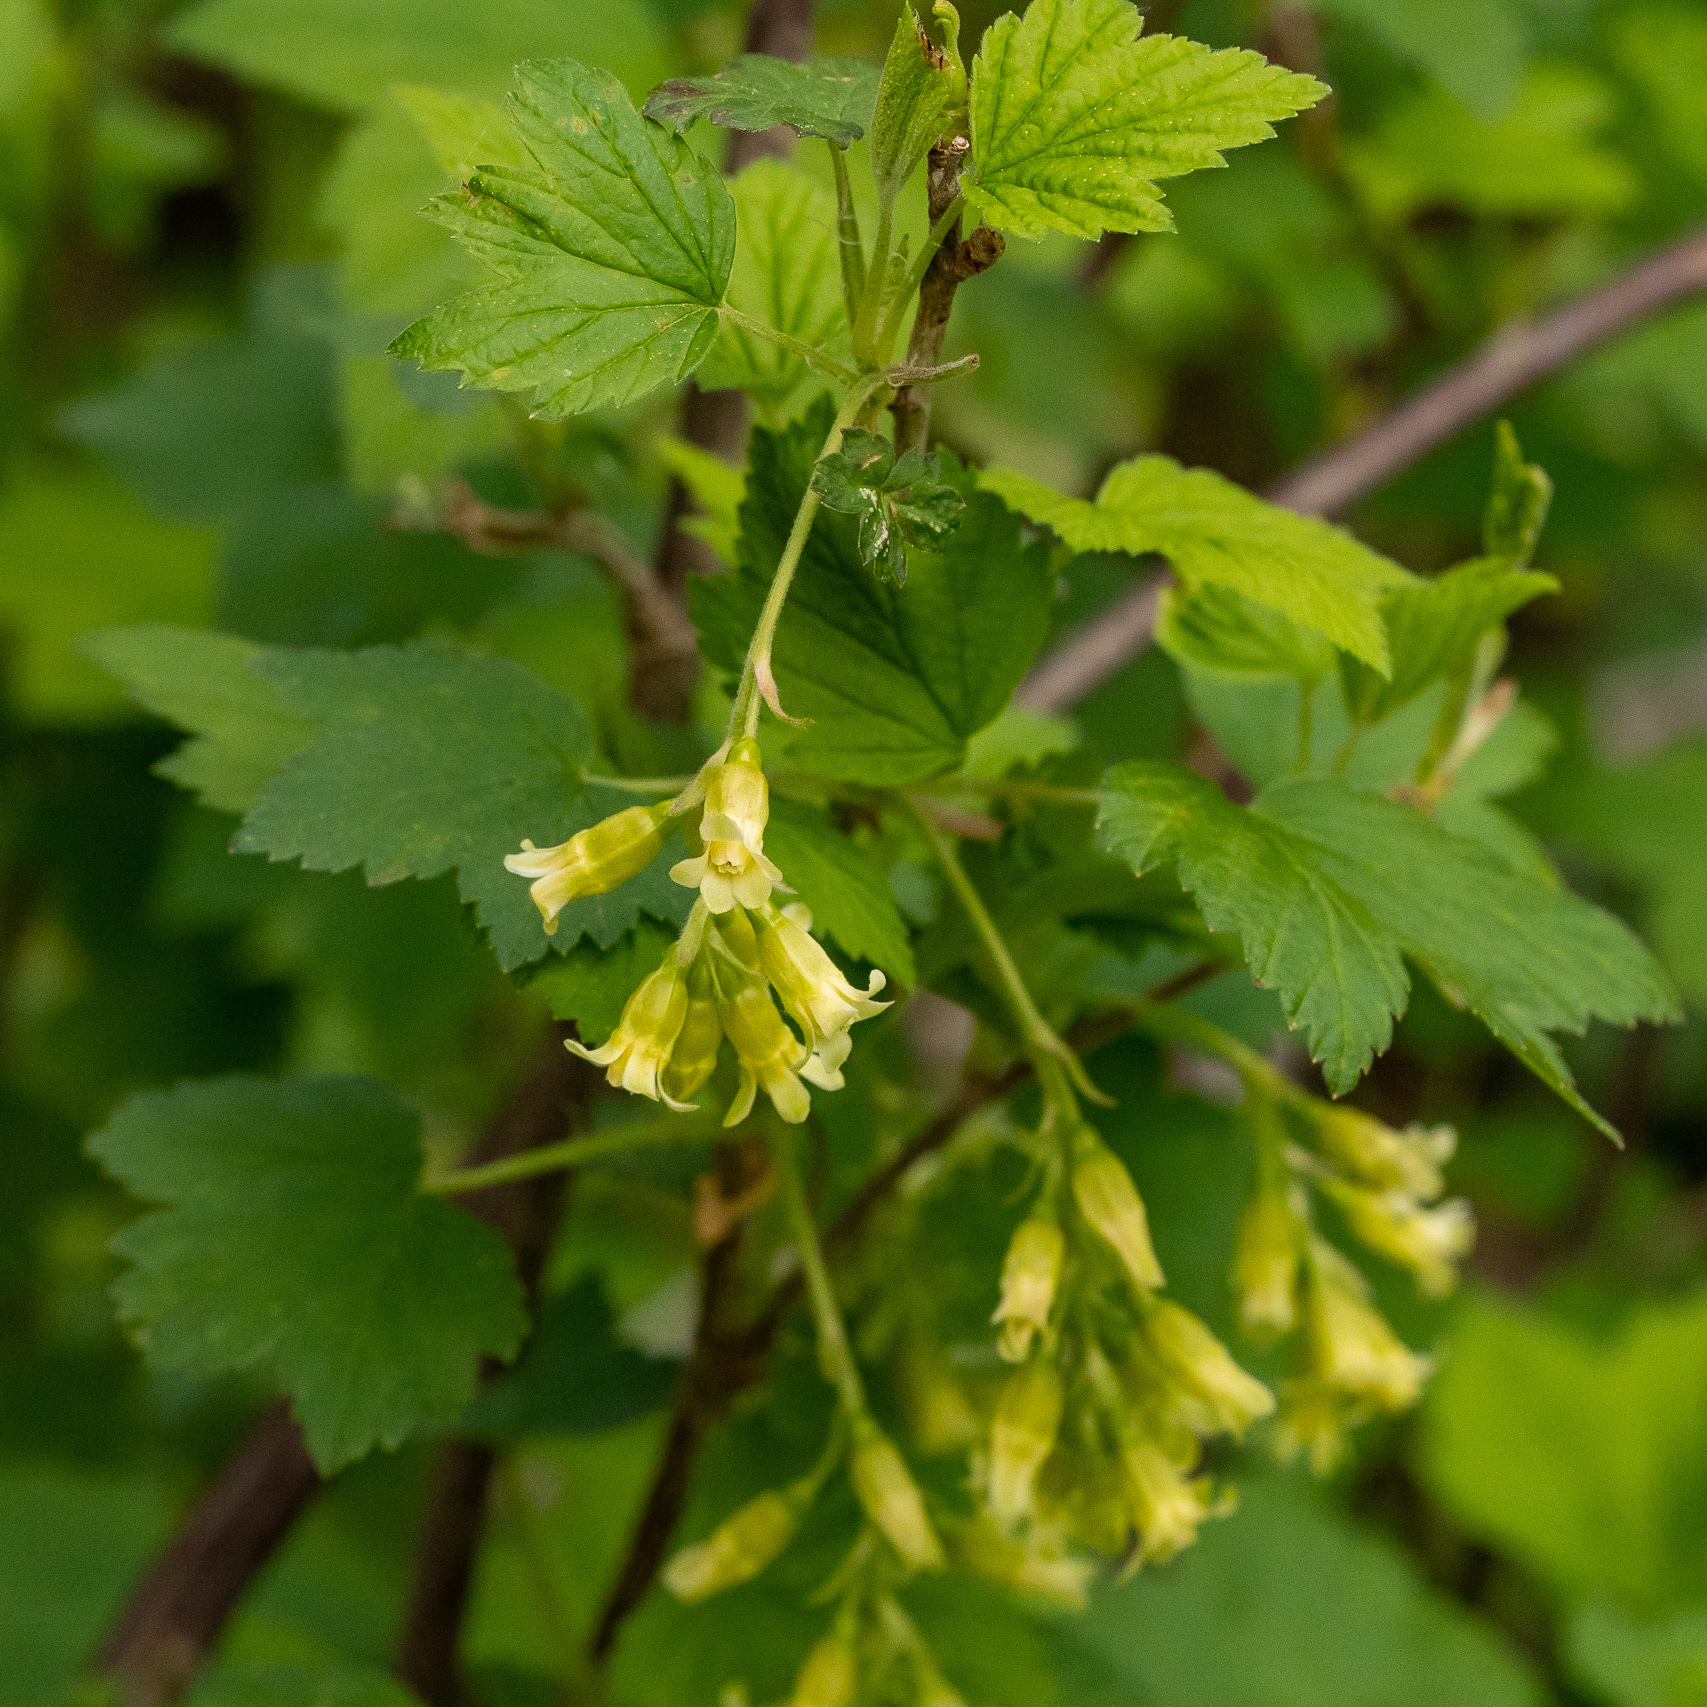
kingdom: Plantae
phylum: Tracheophyta
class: Magnoliopsida
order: Saxifragales
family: Grossulariaceae
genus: Ribes
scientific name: Ribes americanum
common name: American black currant
